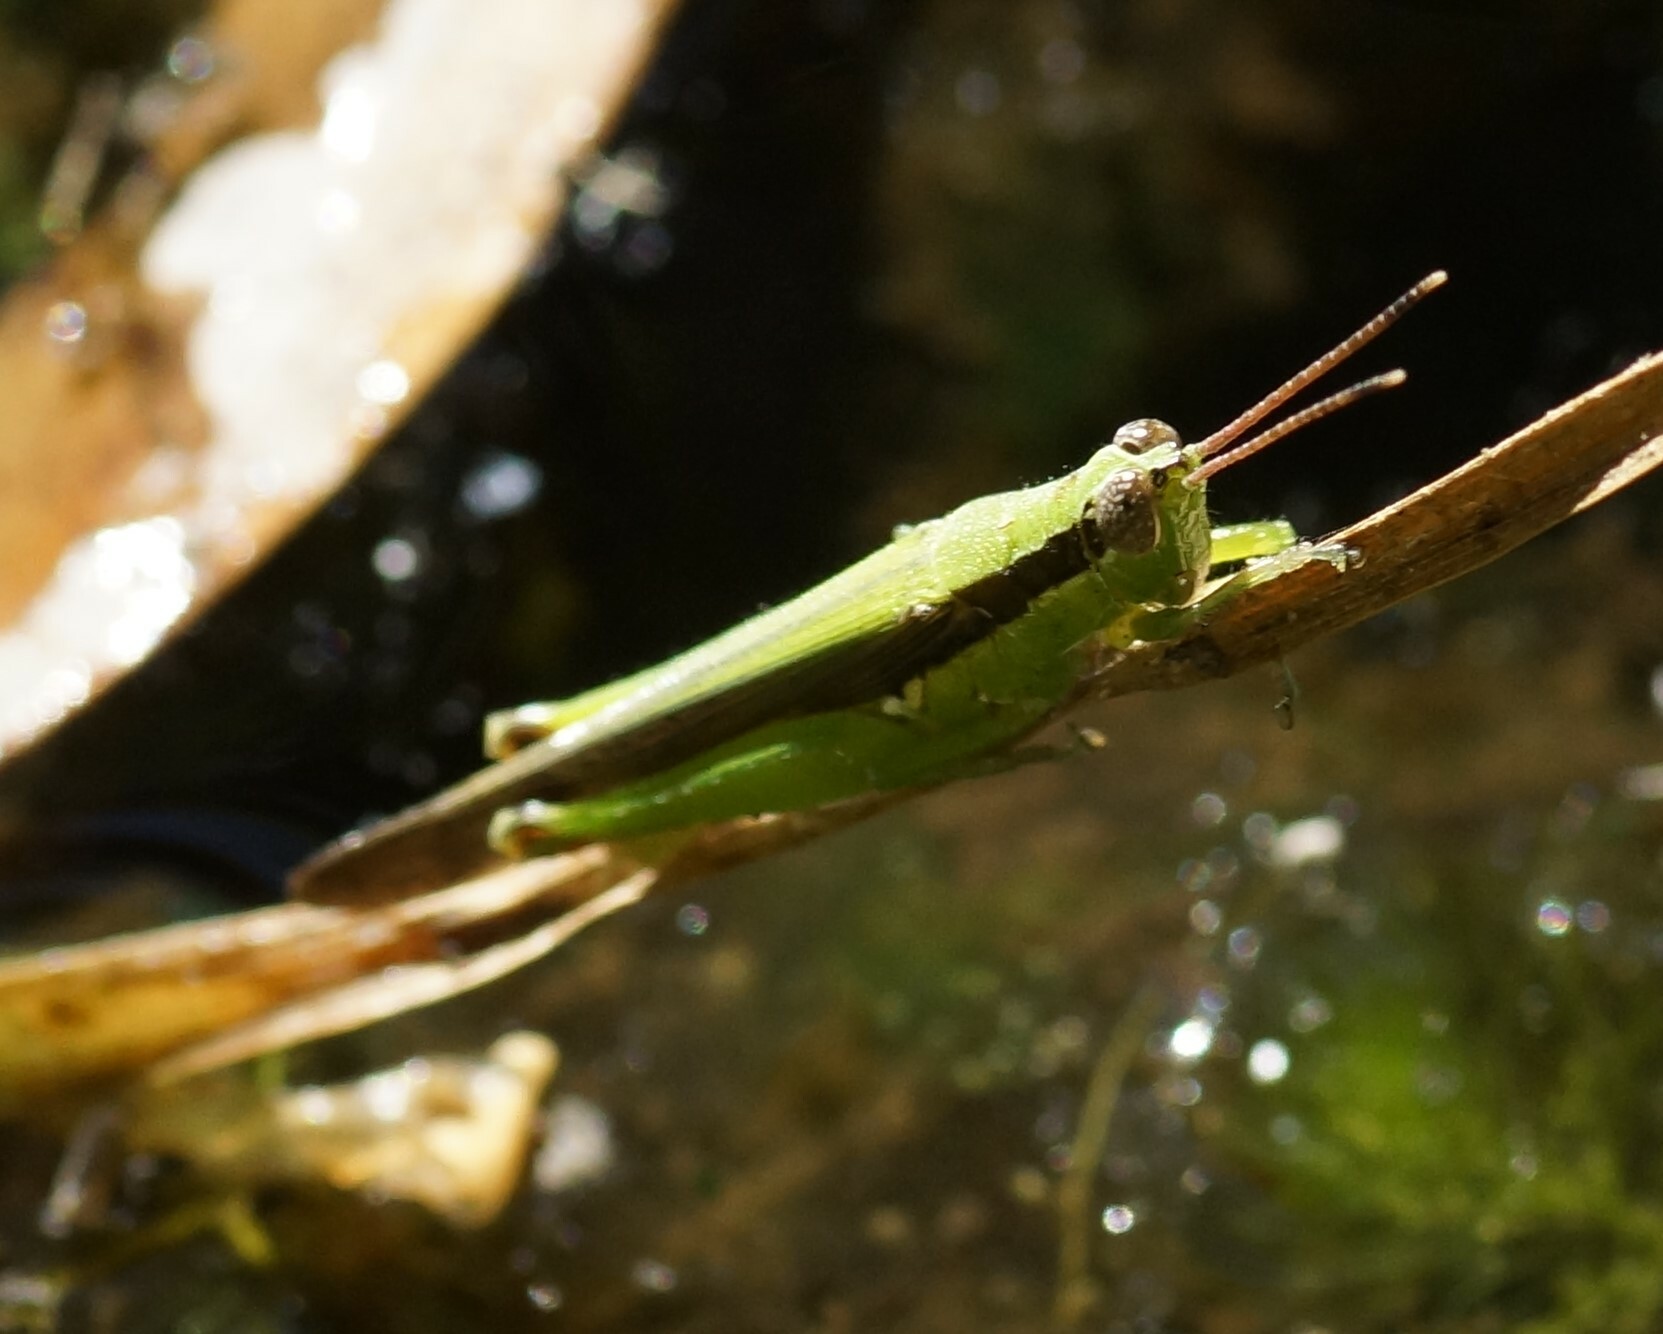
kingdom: Animalia
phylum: Arthropoda
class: Insecta
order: Orthoptera
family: Acrididae
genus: Gesonula
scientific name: Gesonula mundata
